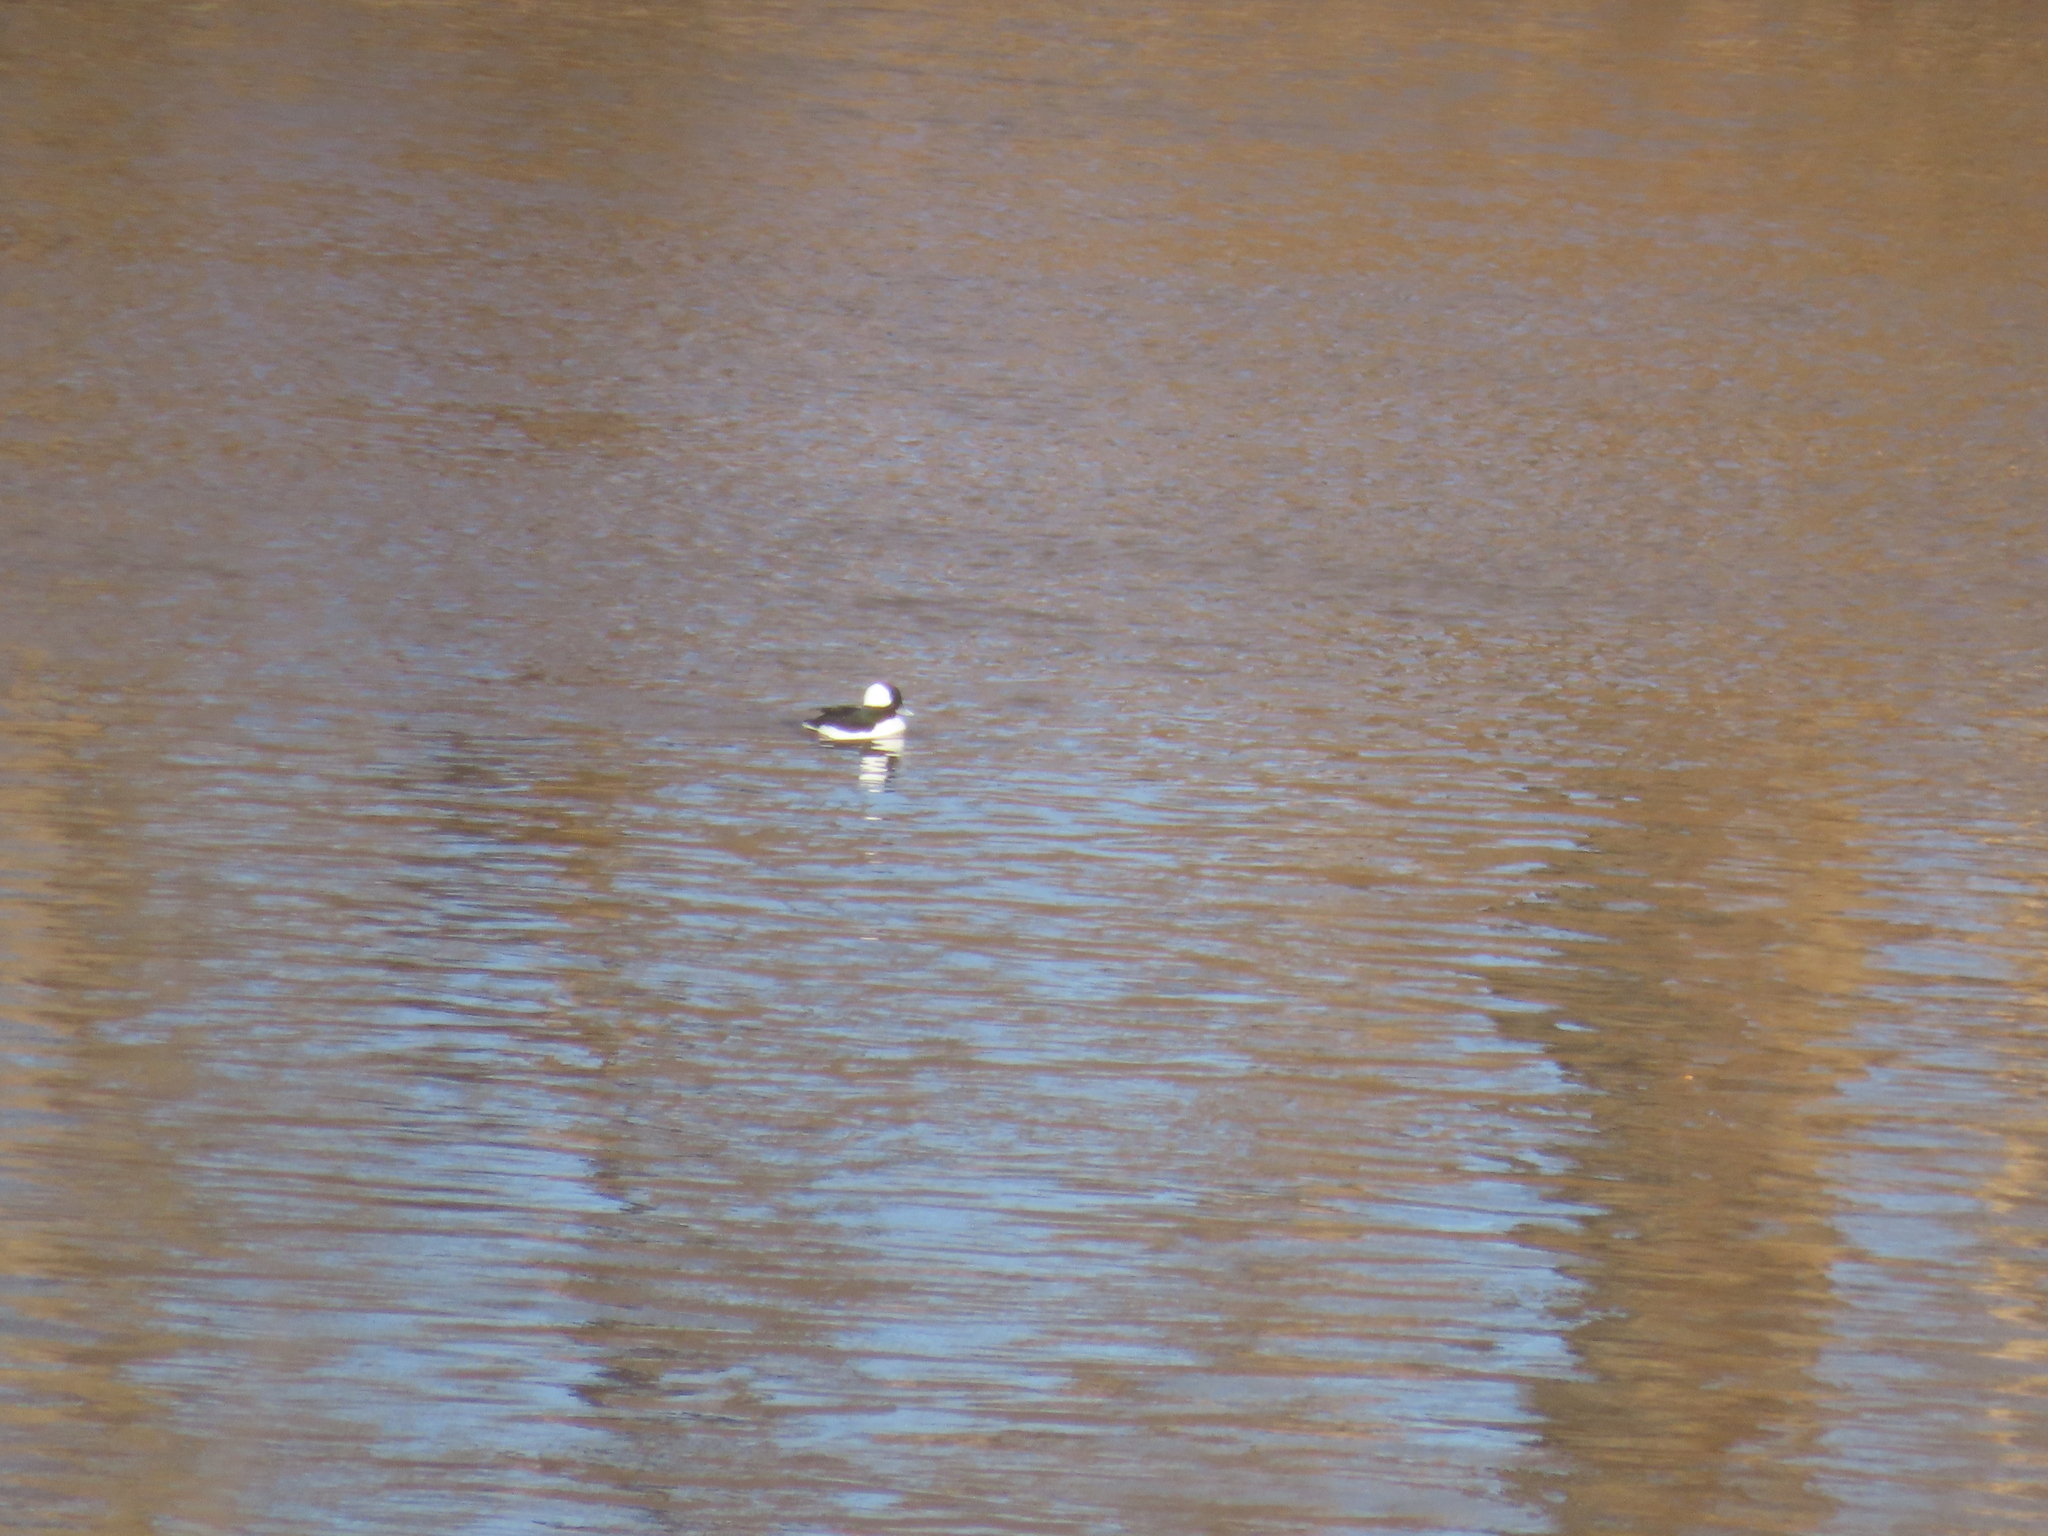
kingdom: Animalia
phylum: Chordata
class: Aves
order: Anseriformes
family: Anatidae
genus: Bucephala
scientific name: Bucephala albeola
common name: Bufflehead
